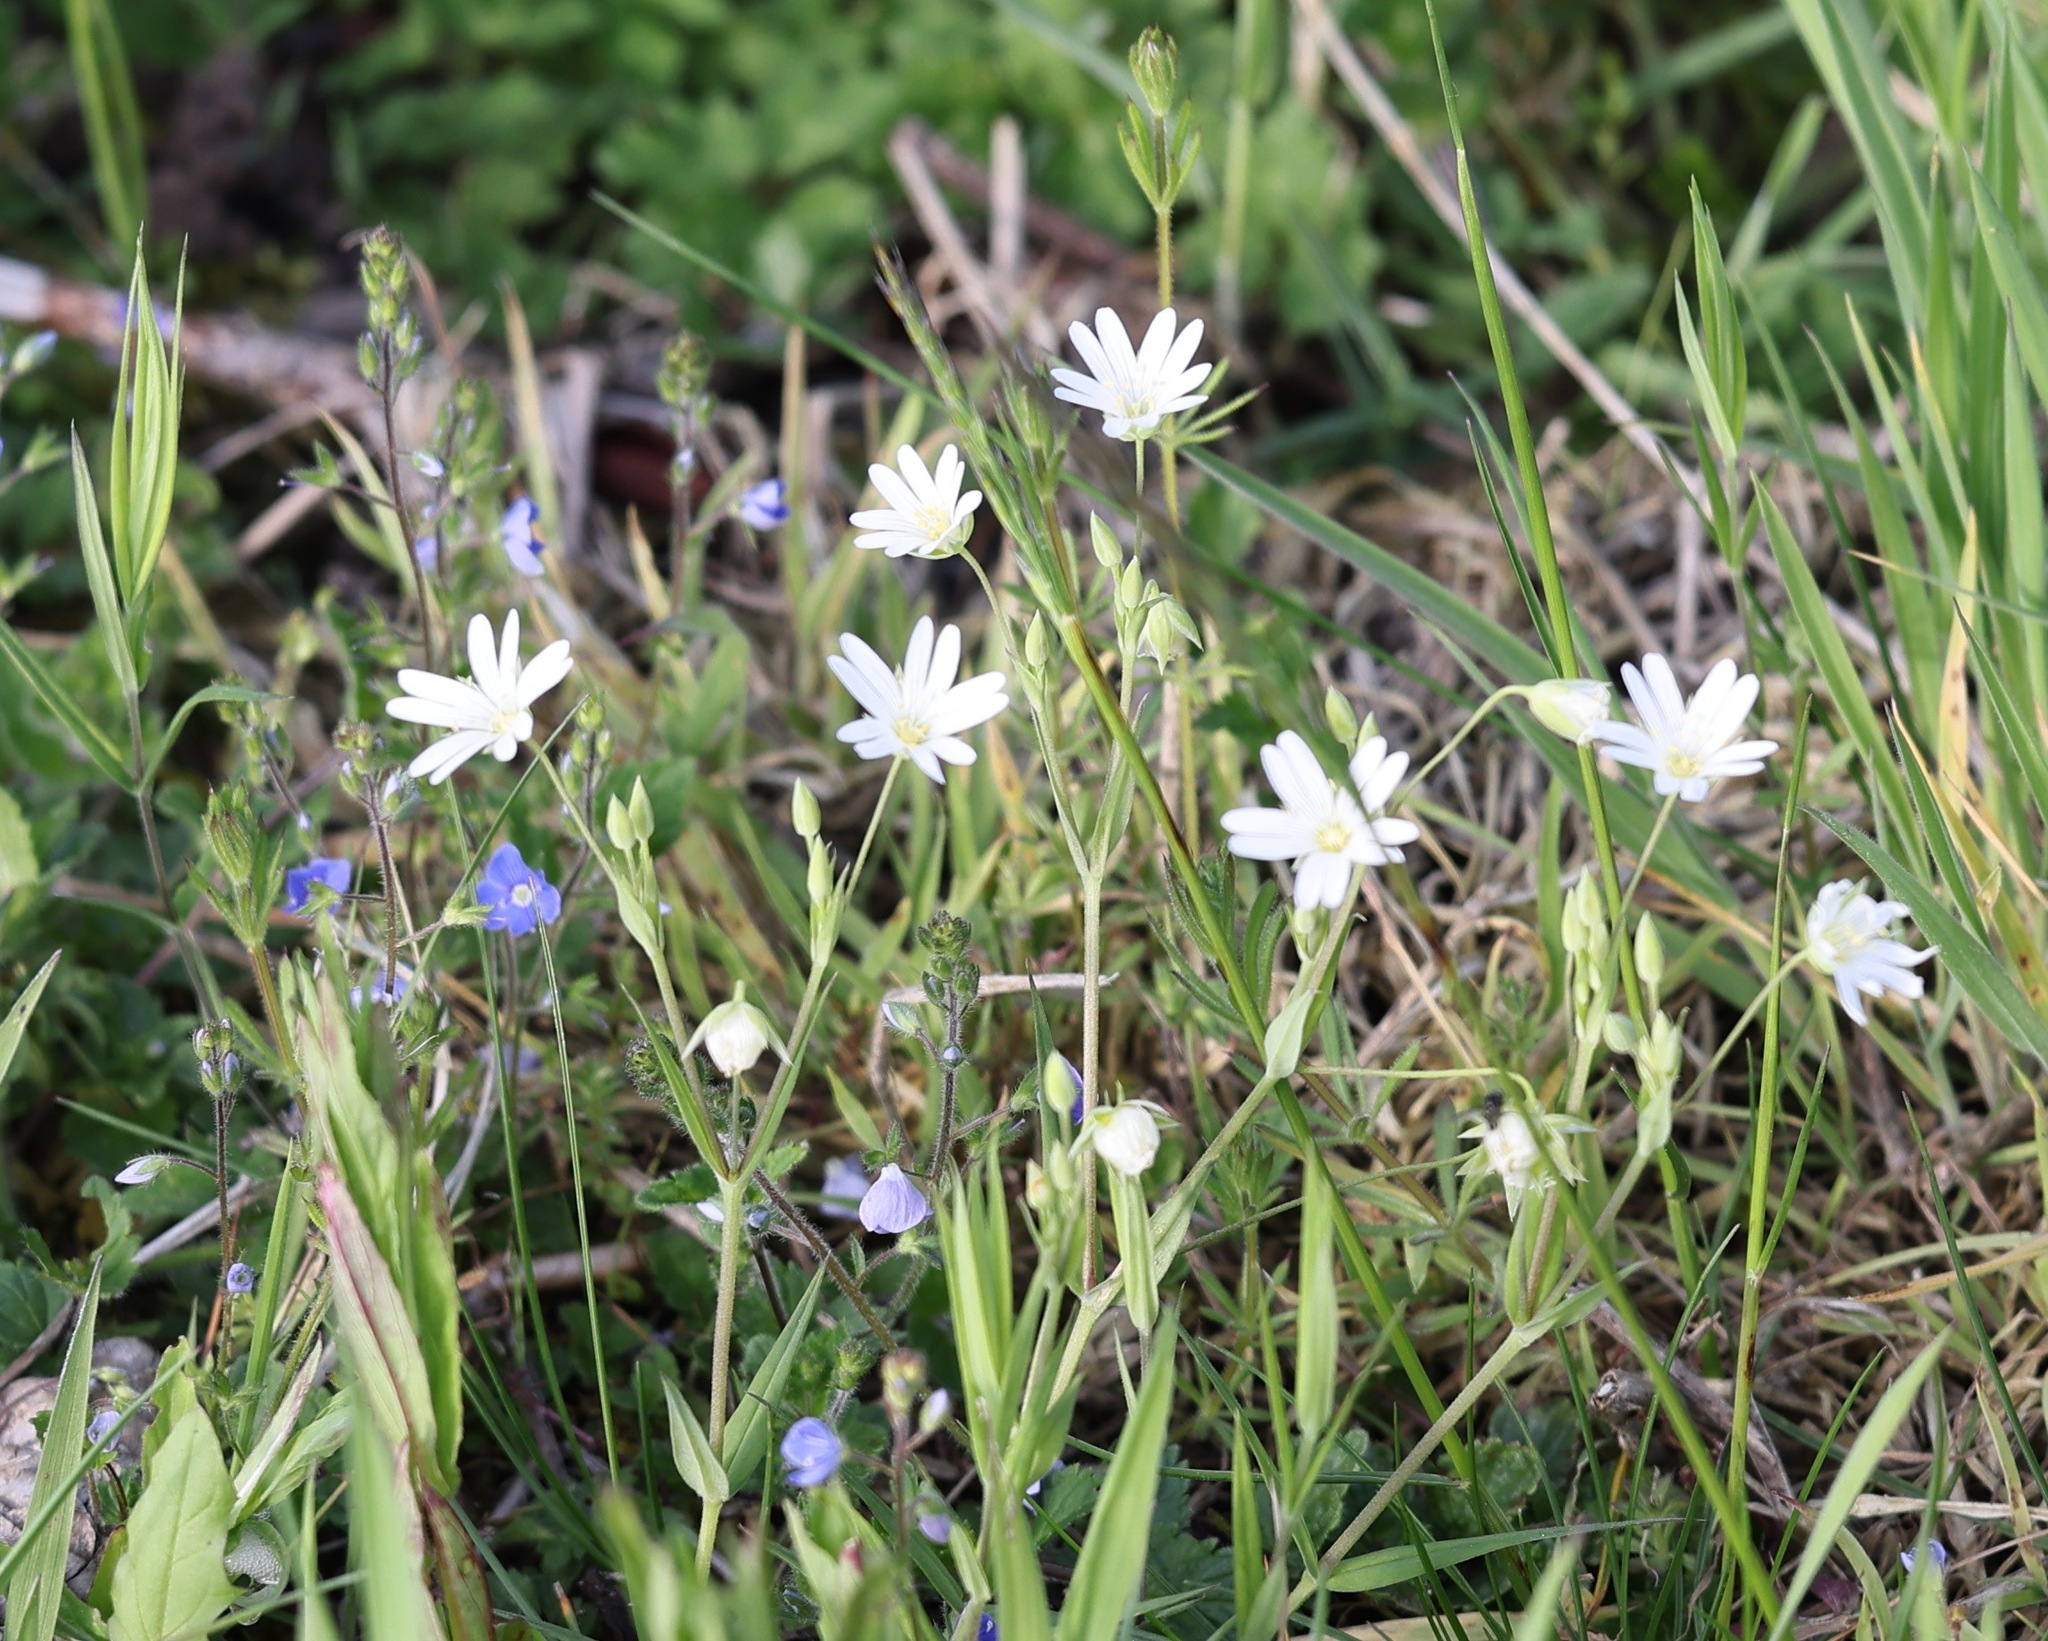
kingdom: Plantae
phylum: Tracheophyta
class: Magnoliopsida
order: Caryophyllales
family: Caryophyllaceae
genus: Rabelera
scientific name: Rabelera holostea
